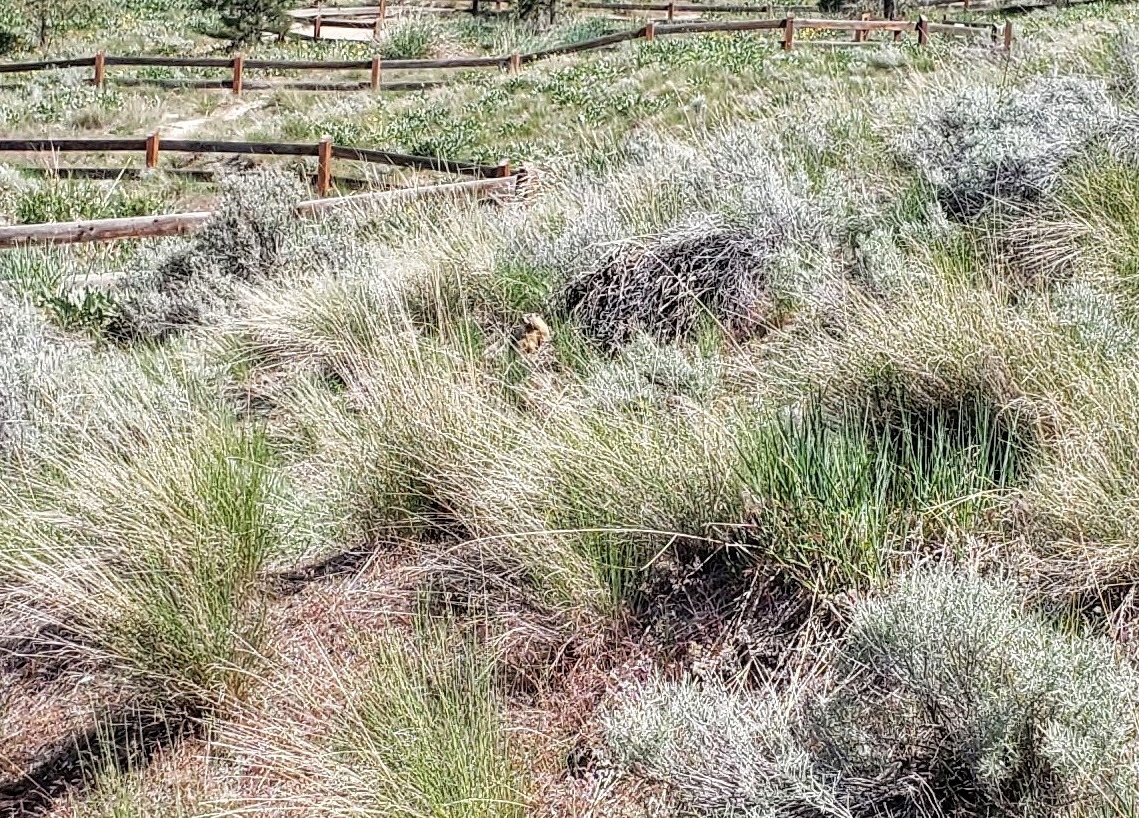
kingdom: Animalia
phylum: Chordata
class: Mammalia
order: Rodentia
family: Sciuridae
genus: Marmota
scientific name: Marmota flaviventris
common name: Yellow-bellied marmot
